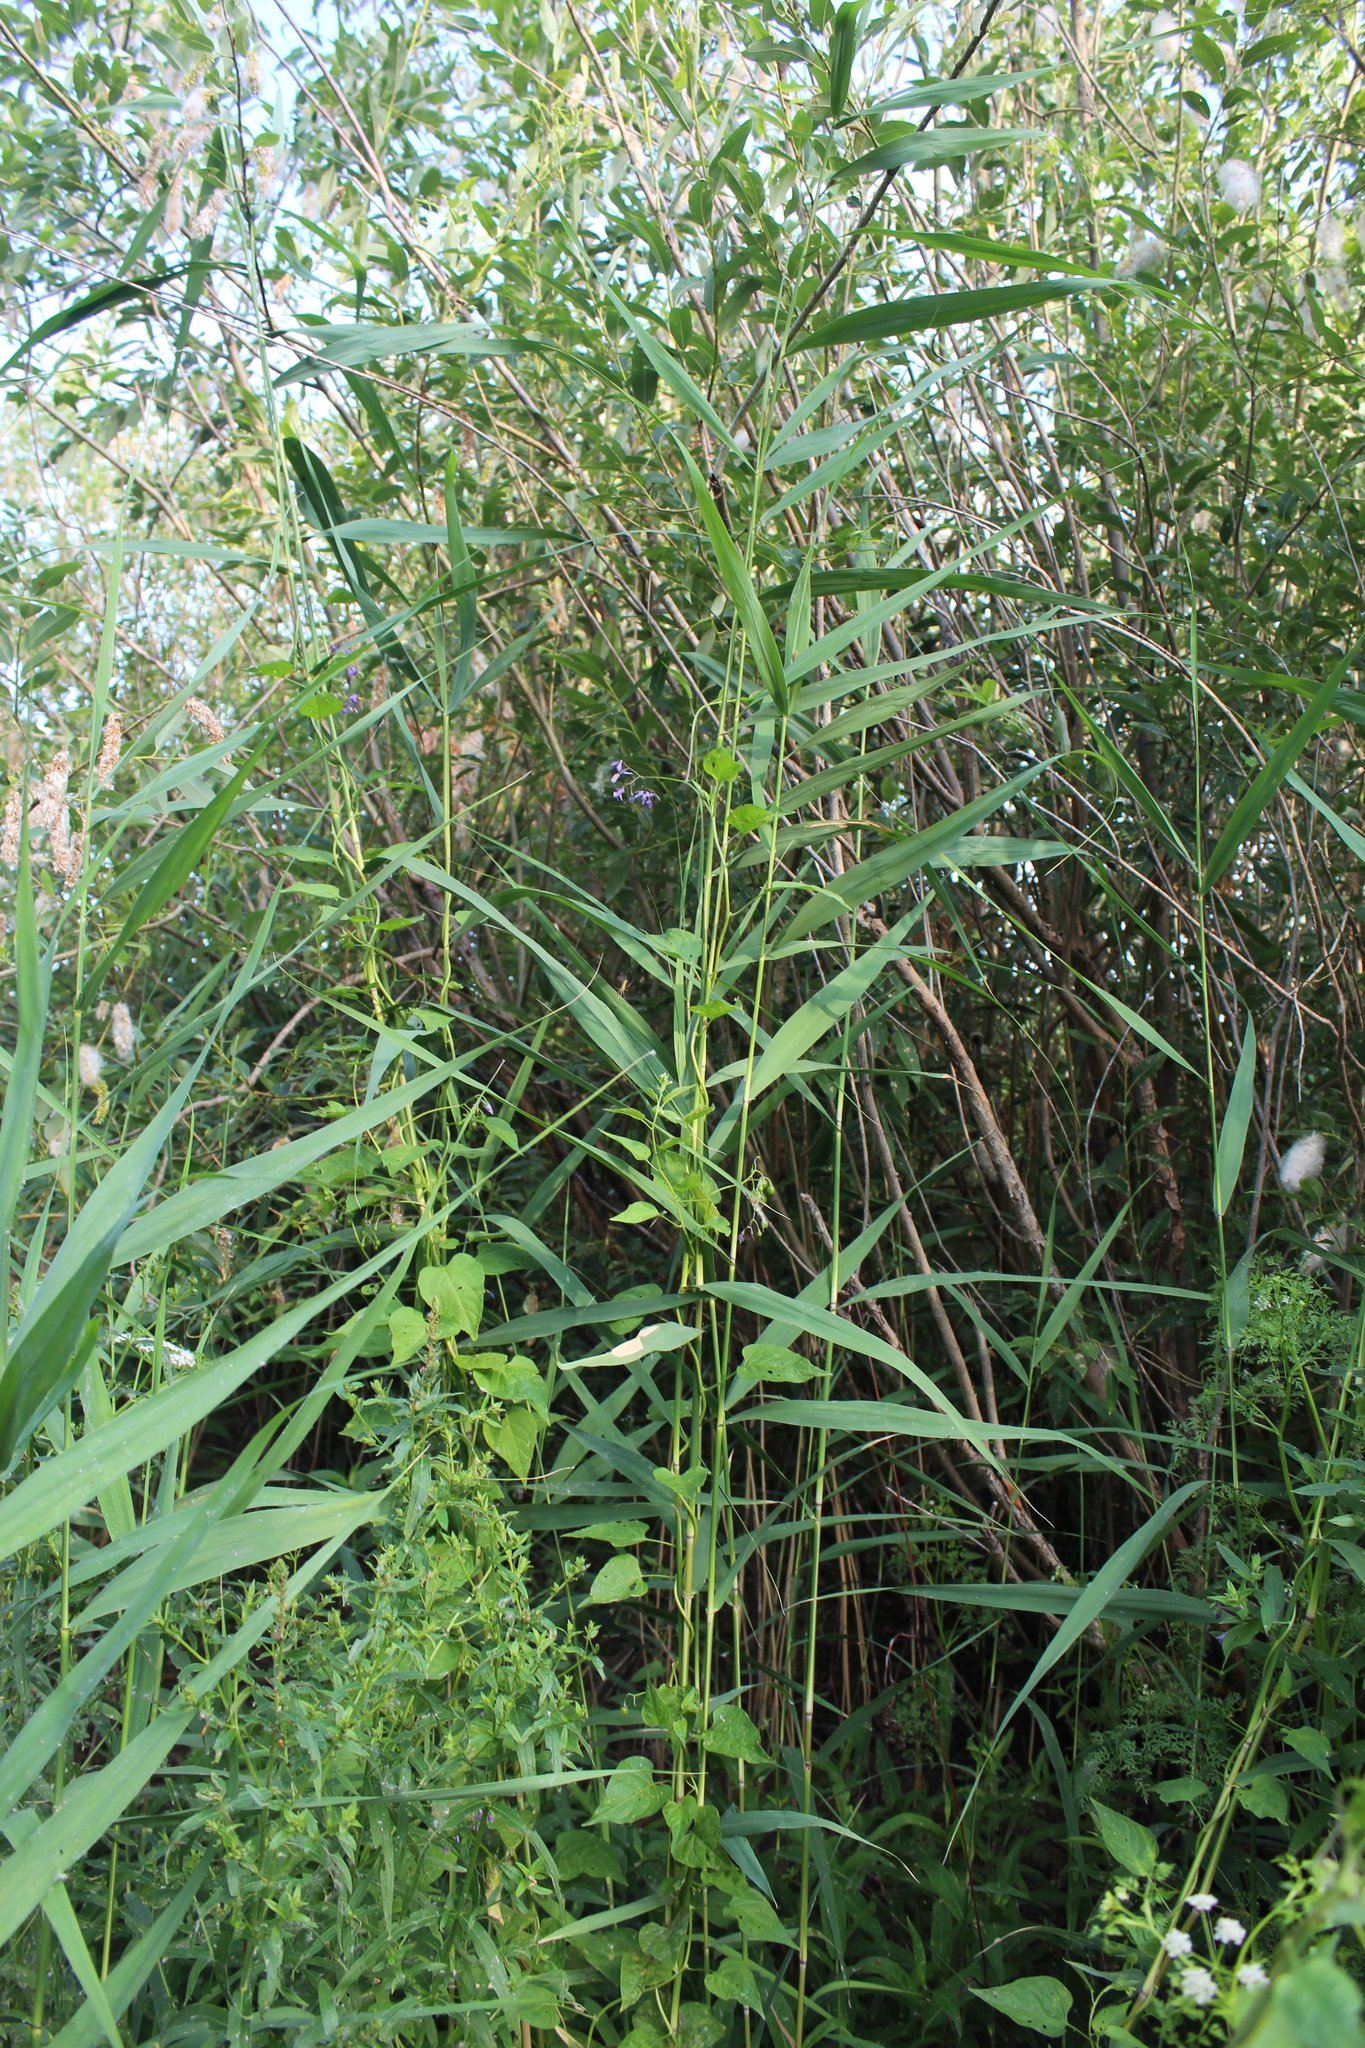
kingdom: Plantae
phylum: Tracheophyta
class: Liliopsida
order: Poales
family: Poaceae
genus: Phragmites
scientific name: Phragmites australis
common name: Common reed
